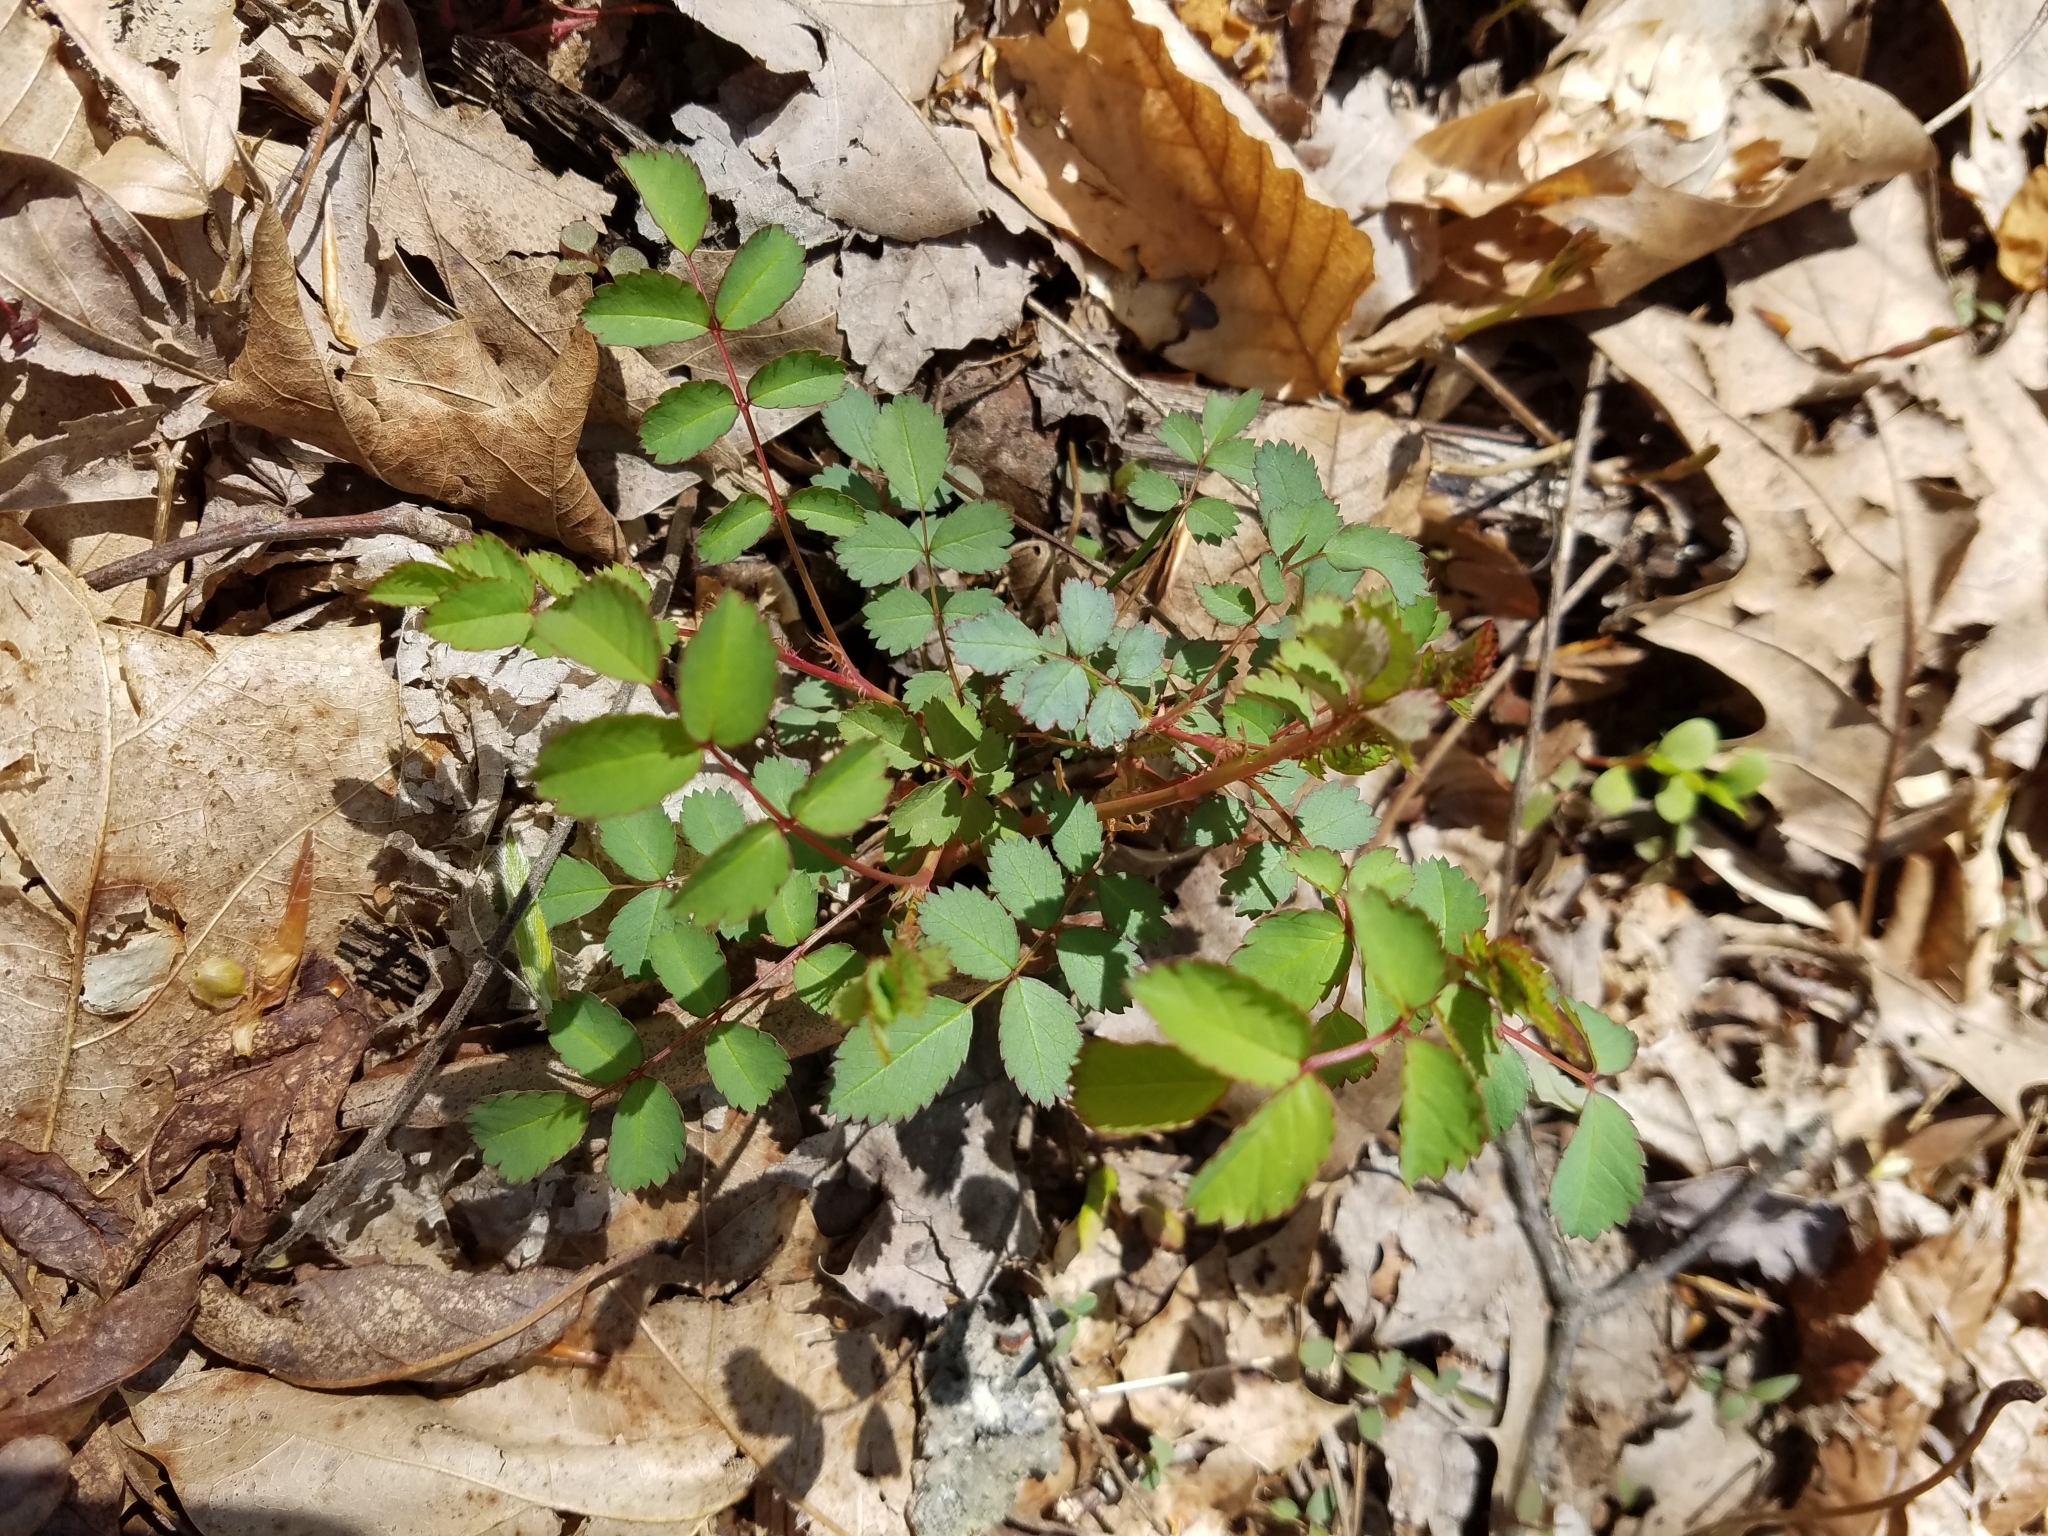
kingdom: Plantae
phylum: Tracheophyta
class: Magnoliopsida
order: Rosales
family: Rosaceae
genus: Rosa
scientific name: Rosa multiflora
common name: Multiflora rose
